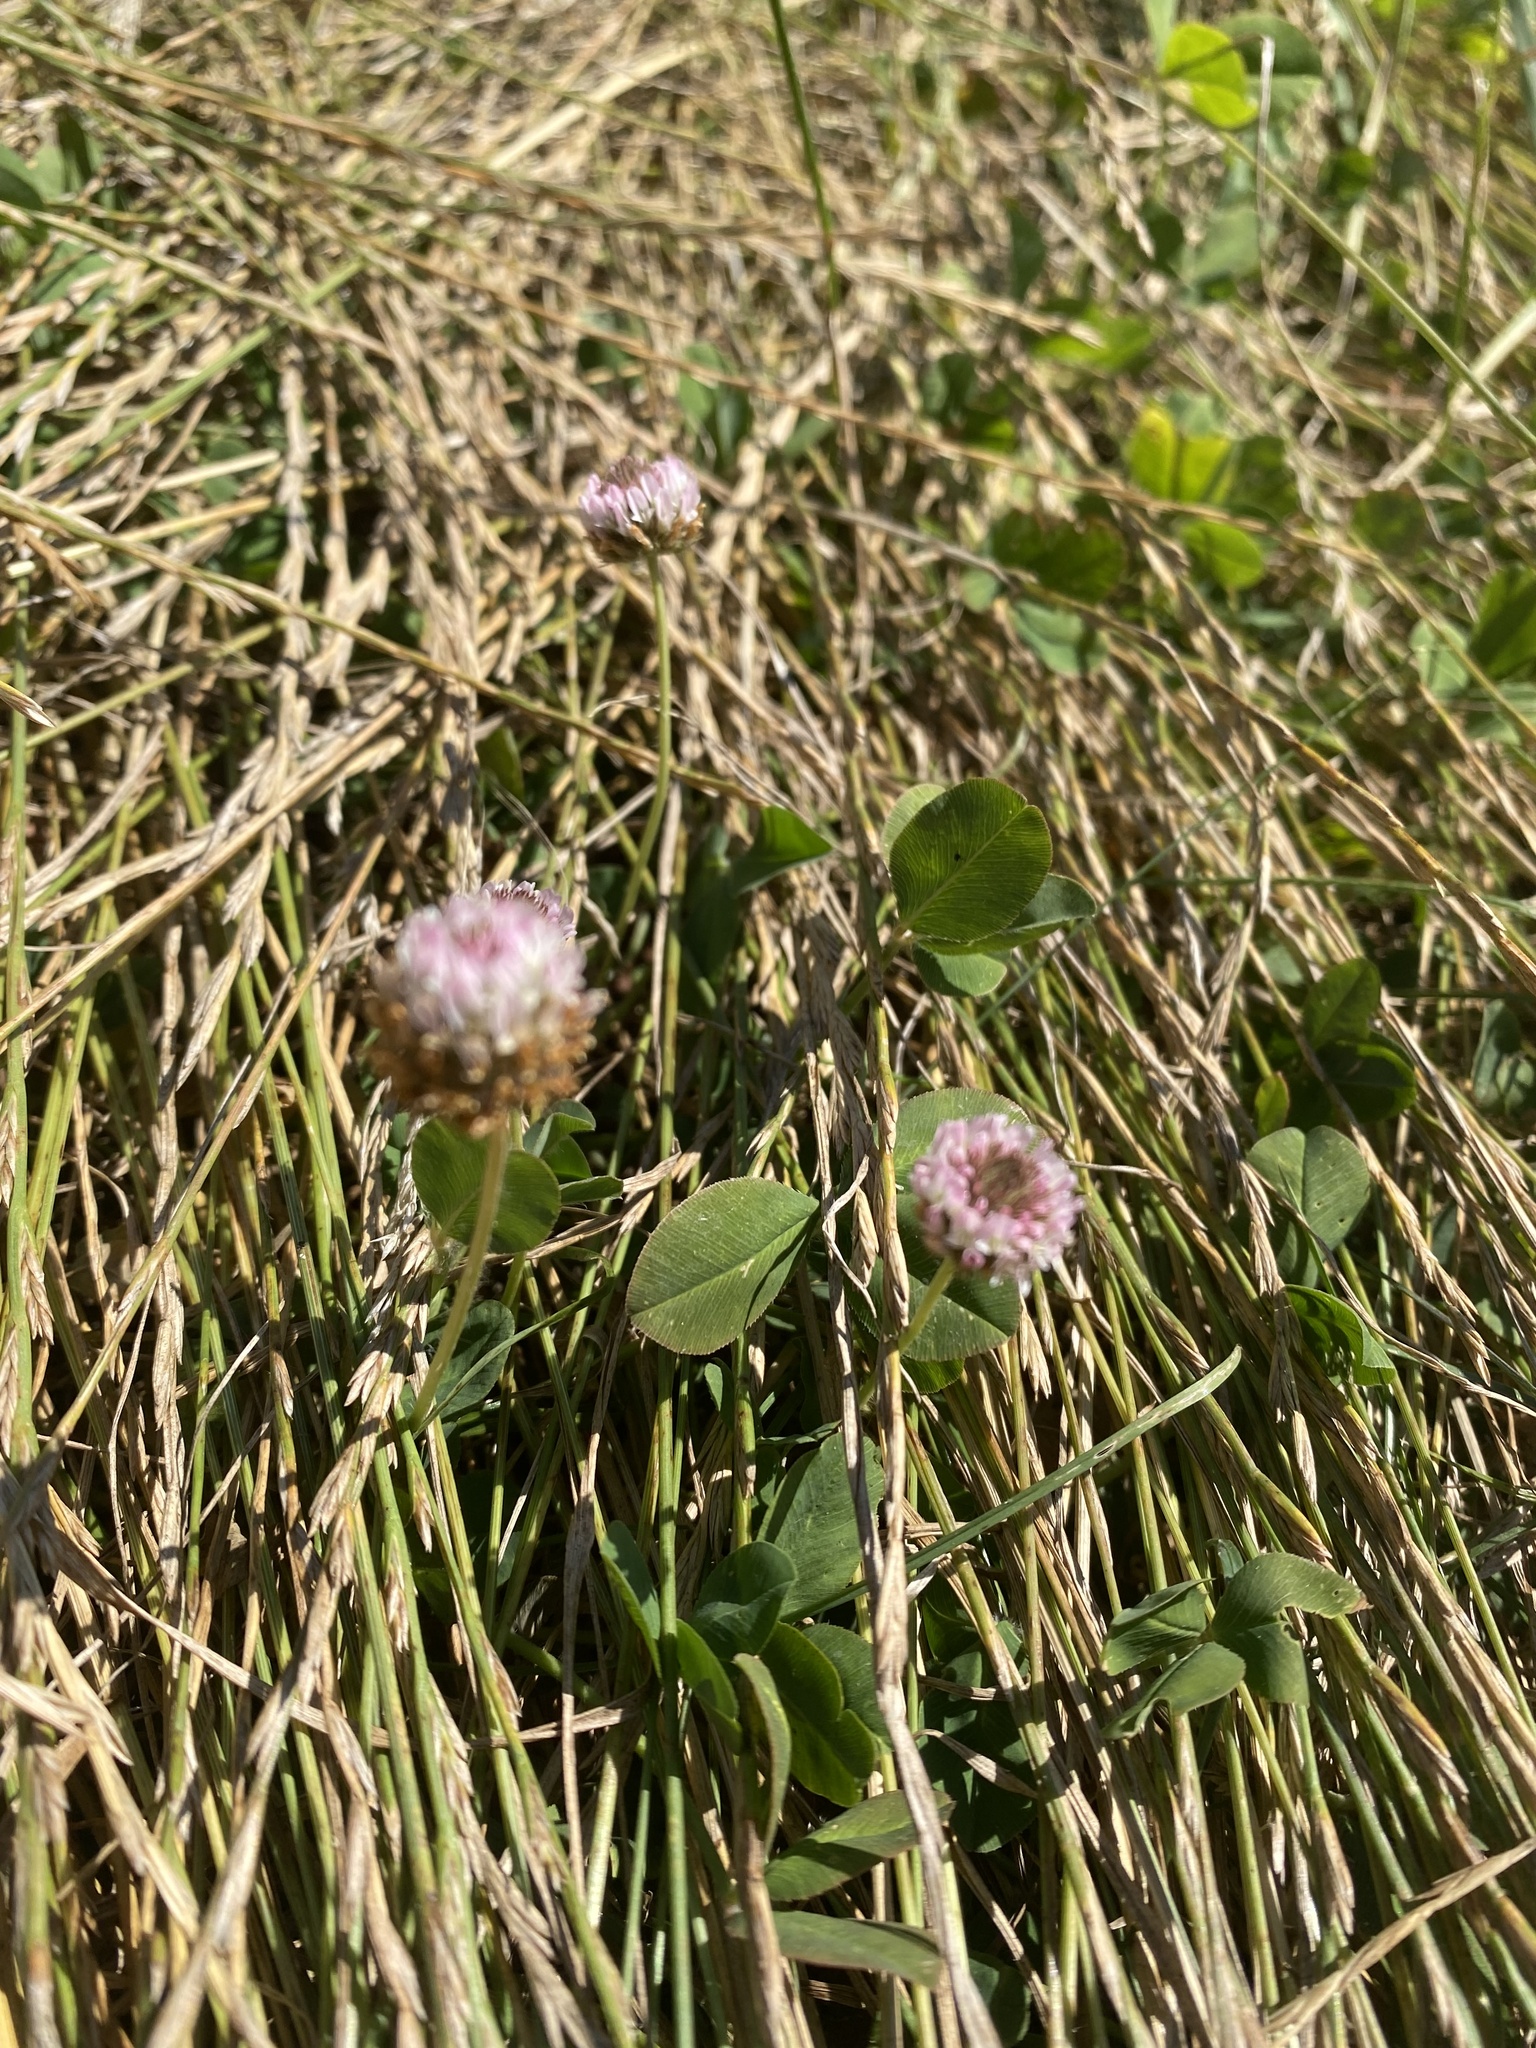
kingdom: Plantae
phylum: Tracheophyta
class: Magnoliopsida
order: Fabales
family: Fabaceae
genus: Trifolium
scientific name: Trifolium fragiferum
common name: Strawberry clover
